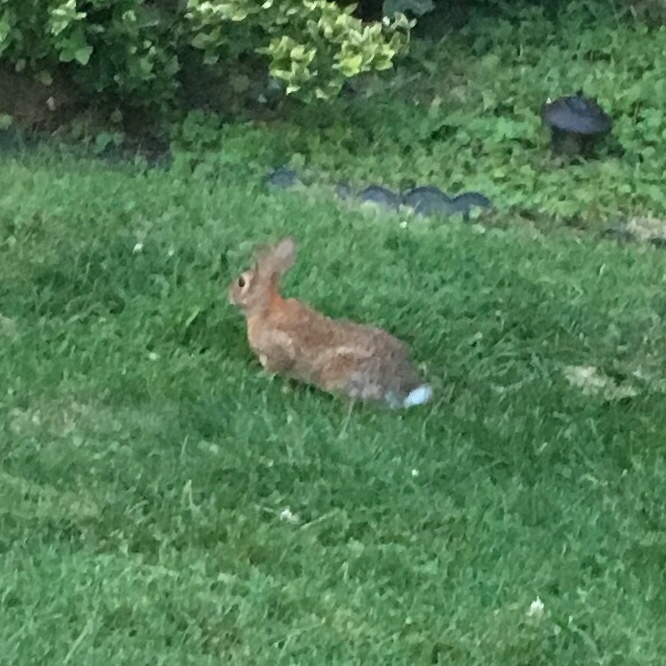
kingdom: Animalia
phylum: Chordata
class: Mammalia
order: Lagomorpha
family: Leporidae
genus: Sylvilagus
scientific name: Sylvilagus floridanus
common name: Eastern cottontail
